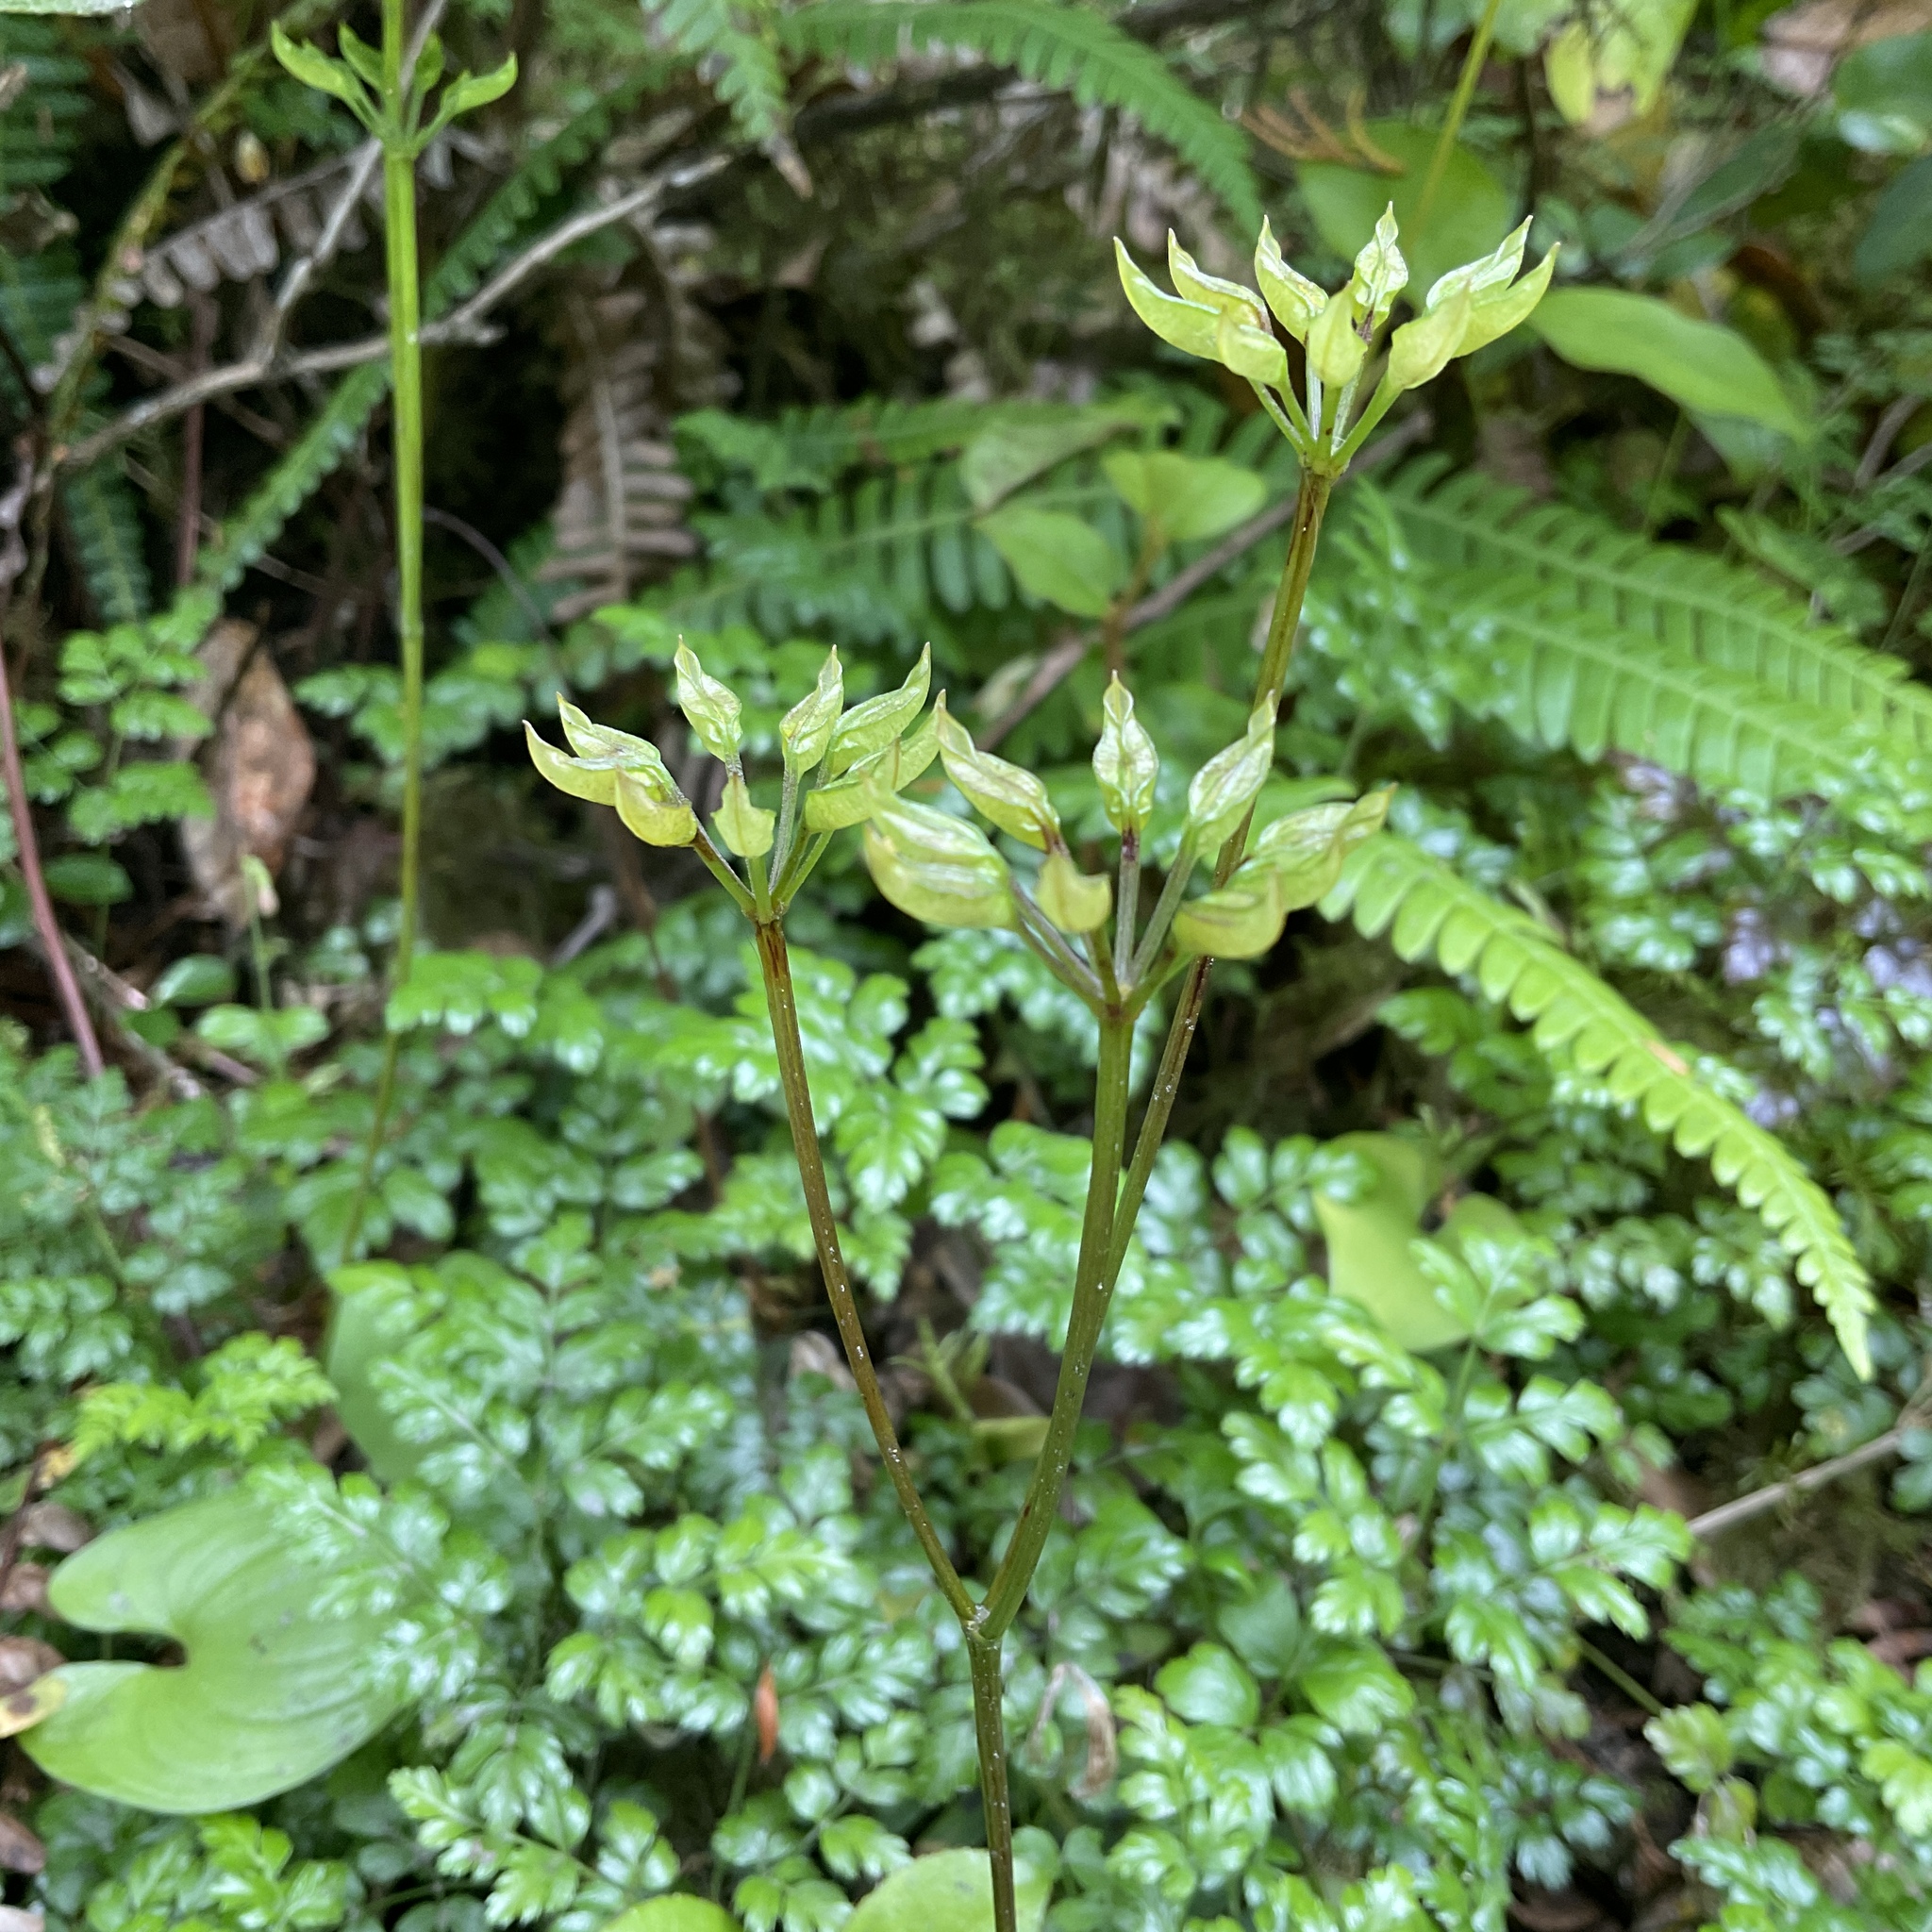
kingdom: Plantae
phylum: Tracheophyta
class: Magnoliopsida
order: Ranunculales
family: Ranunculaceae
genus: Coptis
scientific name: Coptis aspleniifolia
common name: Fern-leaved goldthread
